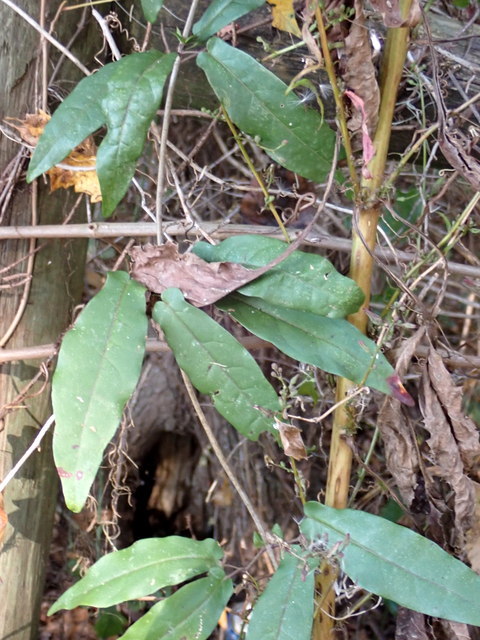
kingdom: Plantae
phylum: Tracheophyta
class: Magnoliopsida
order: Lamiales
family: Bignoniaceae
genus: Bignonia
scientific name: Bignonia capreolata
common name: Crossvine
